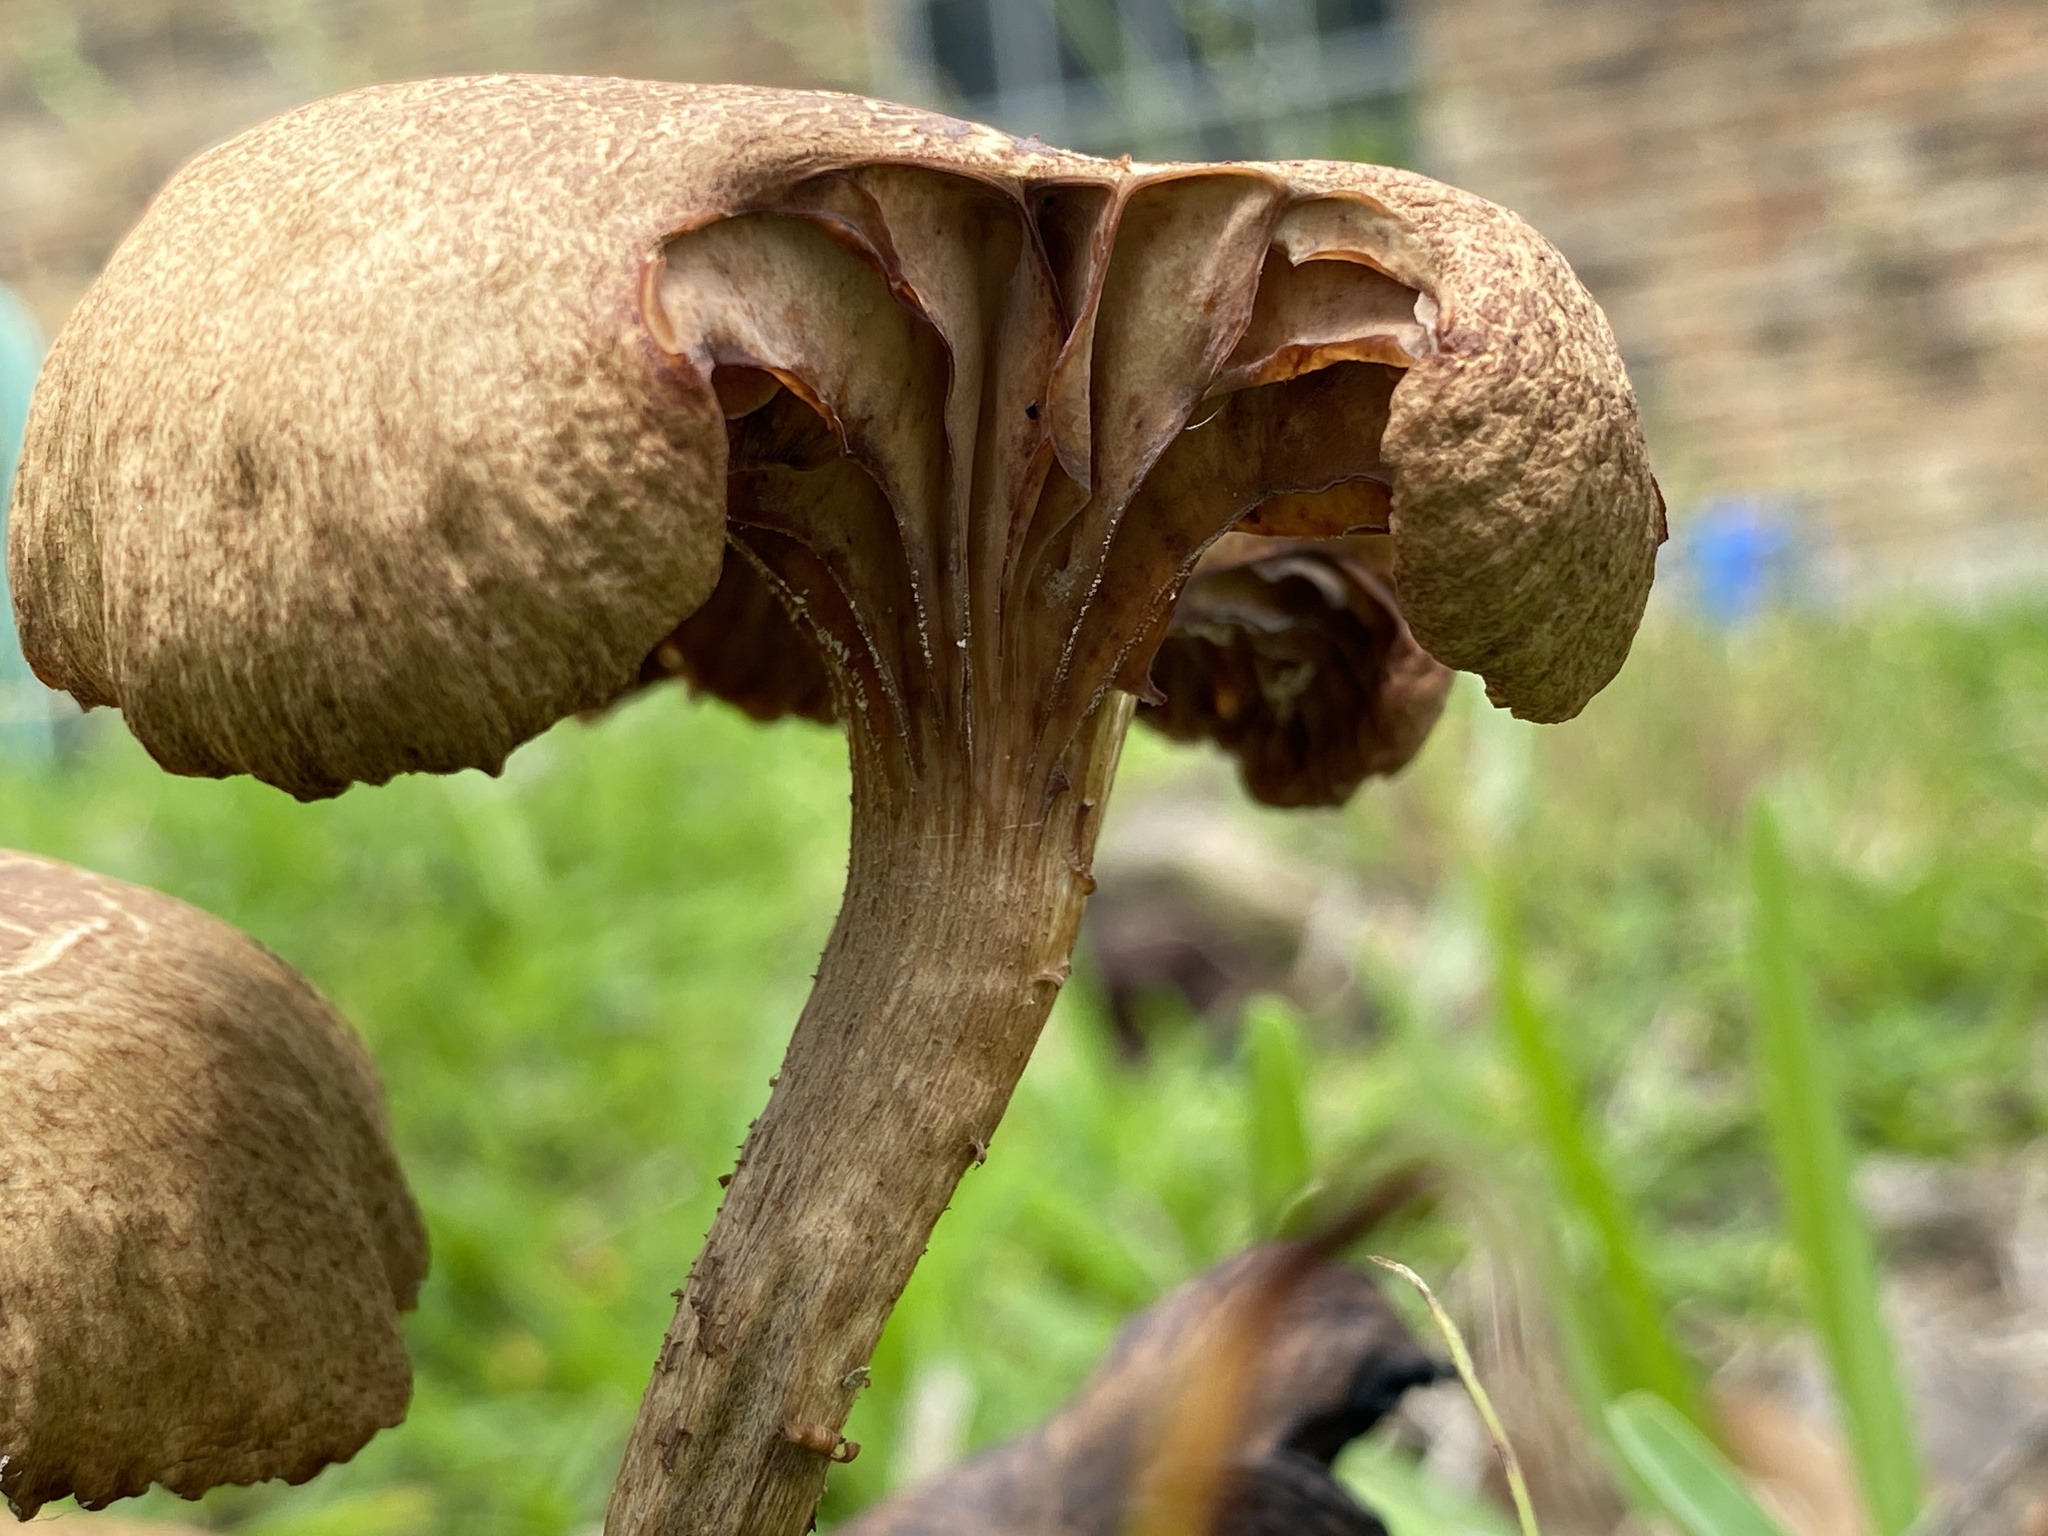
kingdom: Fungi
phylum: Basidiomycota
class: Agaricomycetes
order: Agaricales
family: Physalacriaceae
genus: Desarmillaria
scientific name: Desarmillaria caespitosa
